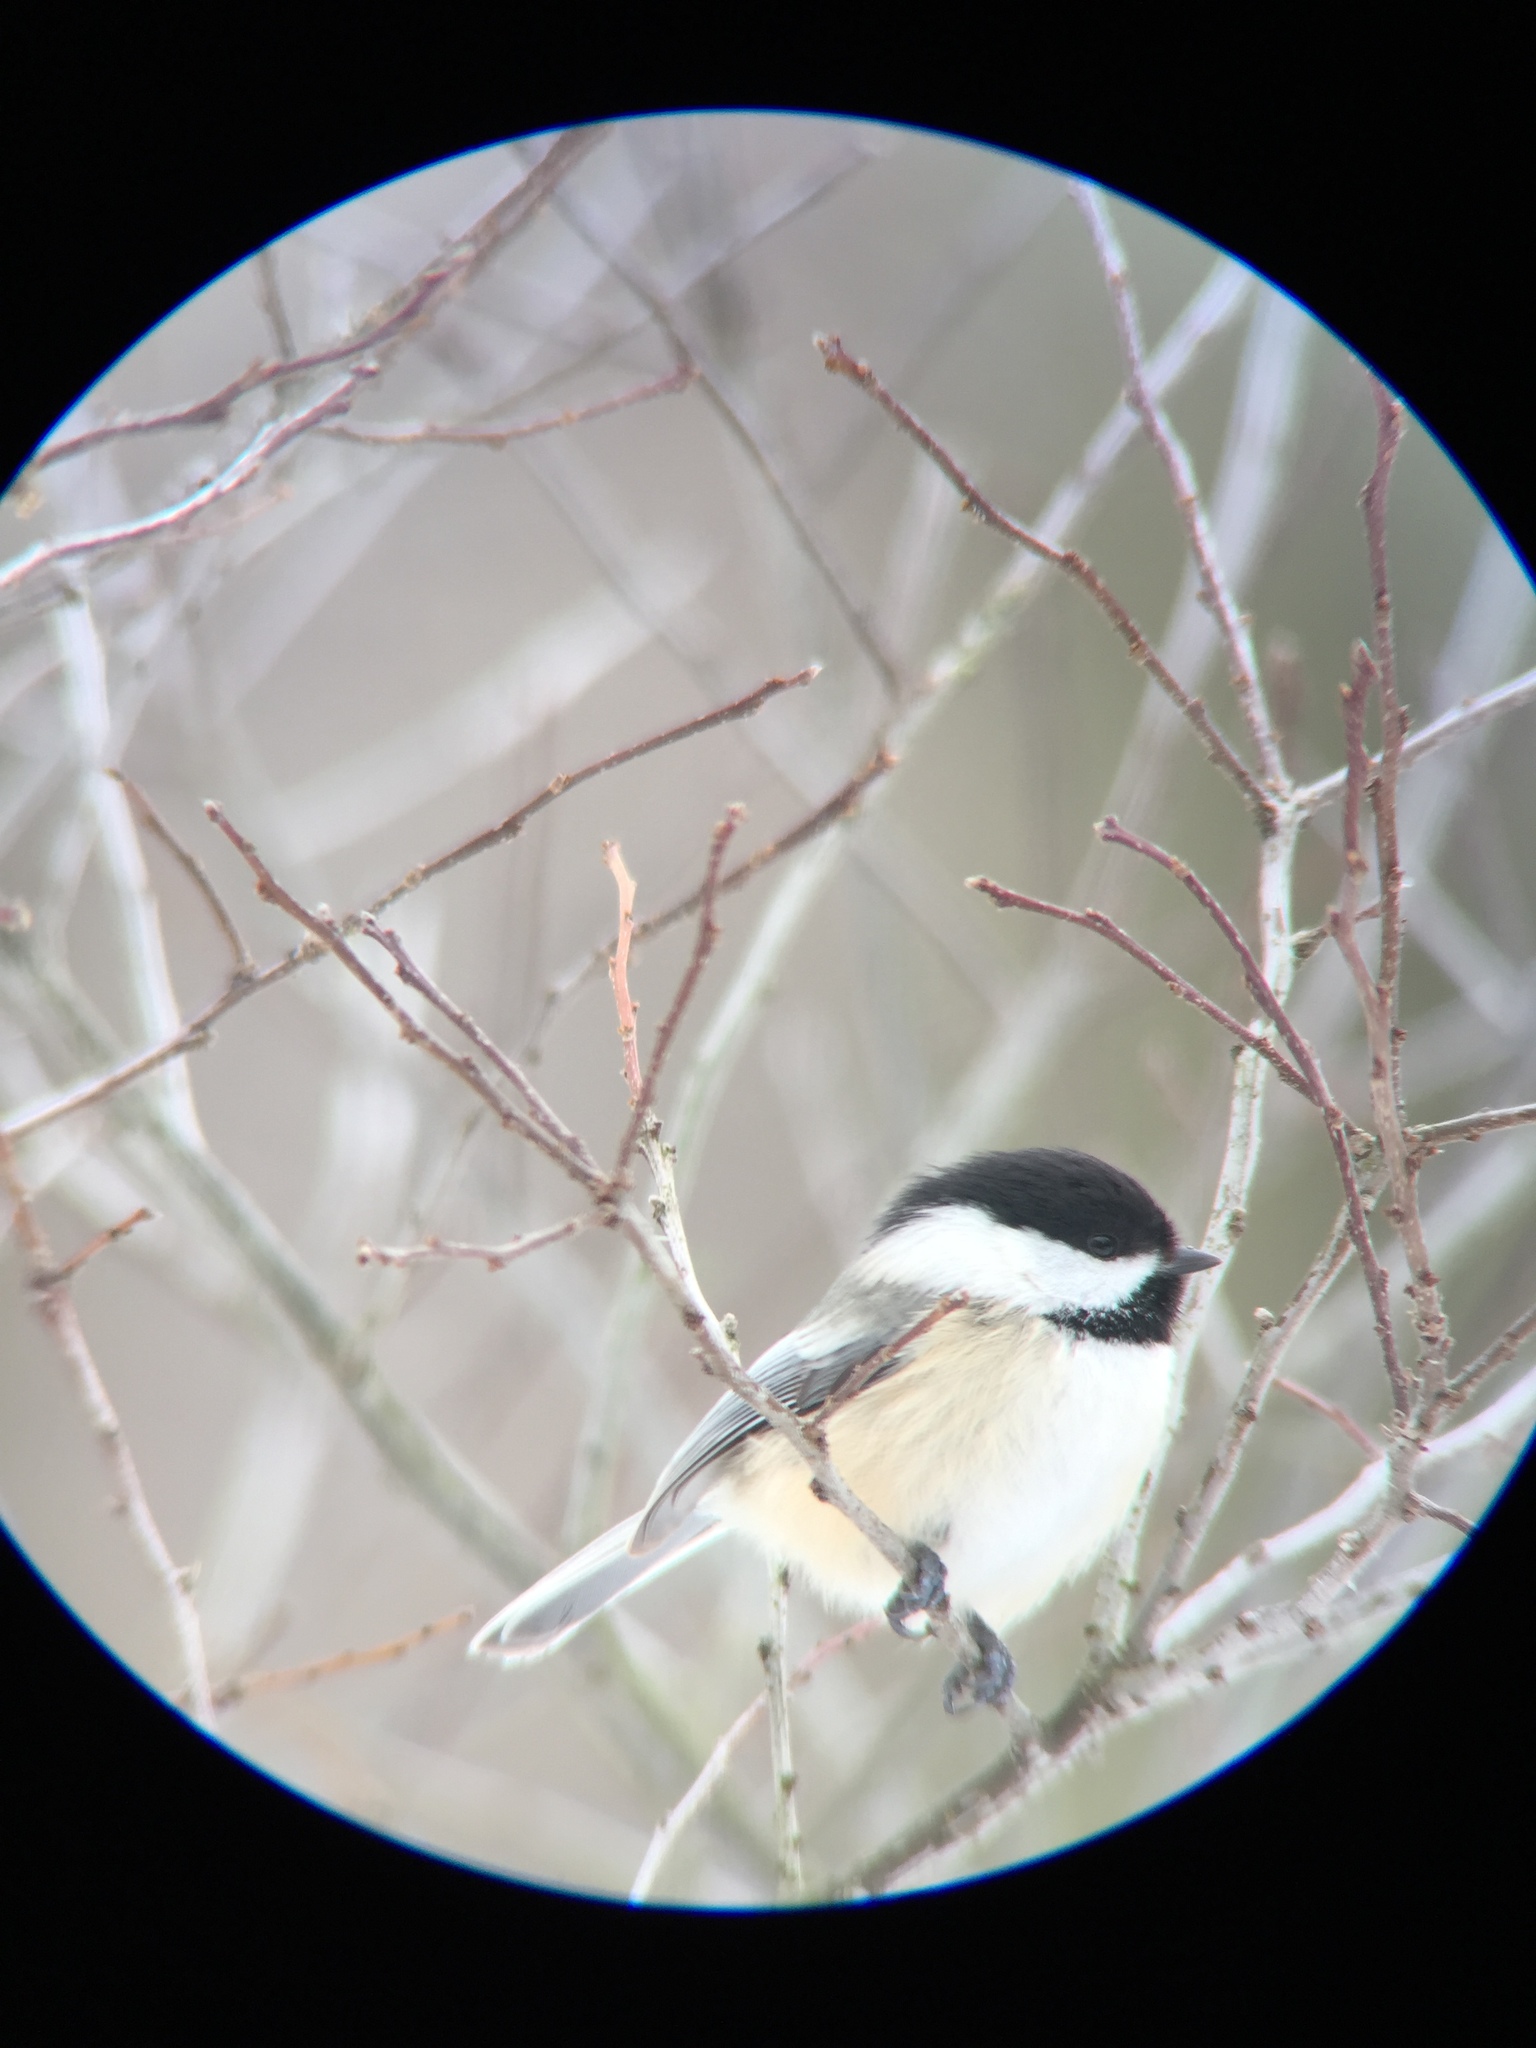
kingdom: Animalia
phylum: Chordata
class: Aves
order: Passeriformes
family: Paridae
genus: Poecile
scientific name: Poecile atricapillus
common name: Black-capped chickadee
